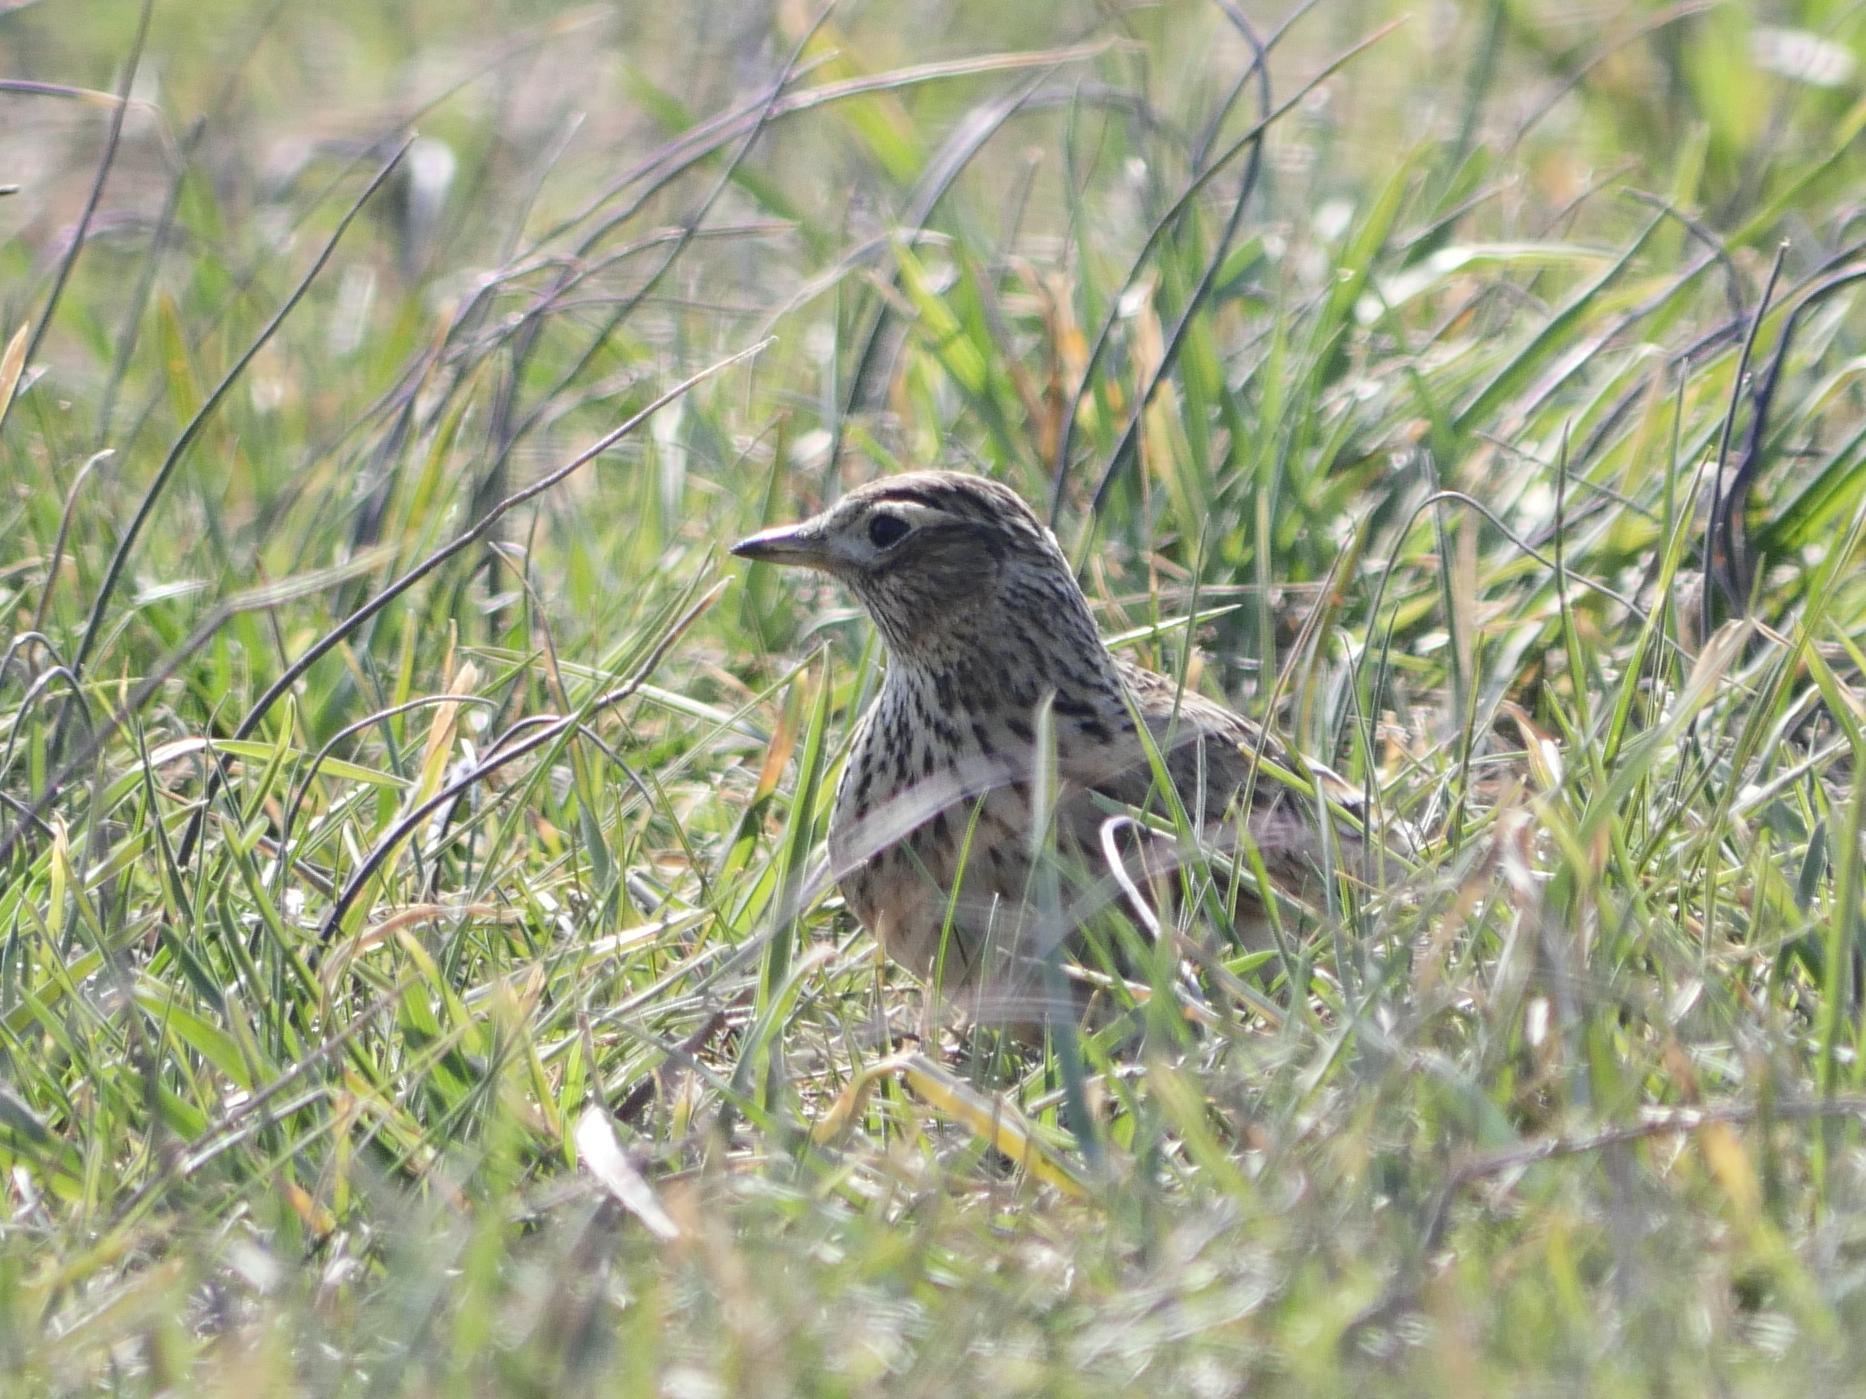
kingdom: Animalia
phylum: Chordata
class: Aves
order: Passeriformes
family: Alaudidae
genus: Alauda
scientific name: Alauda arvensis
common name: Eurasian skylark
